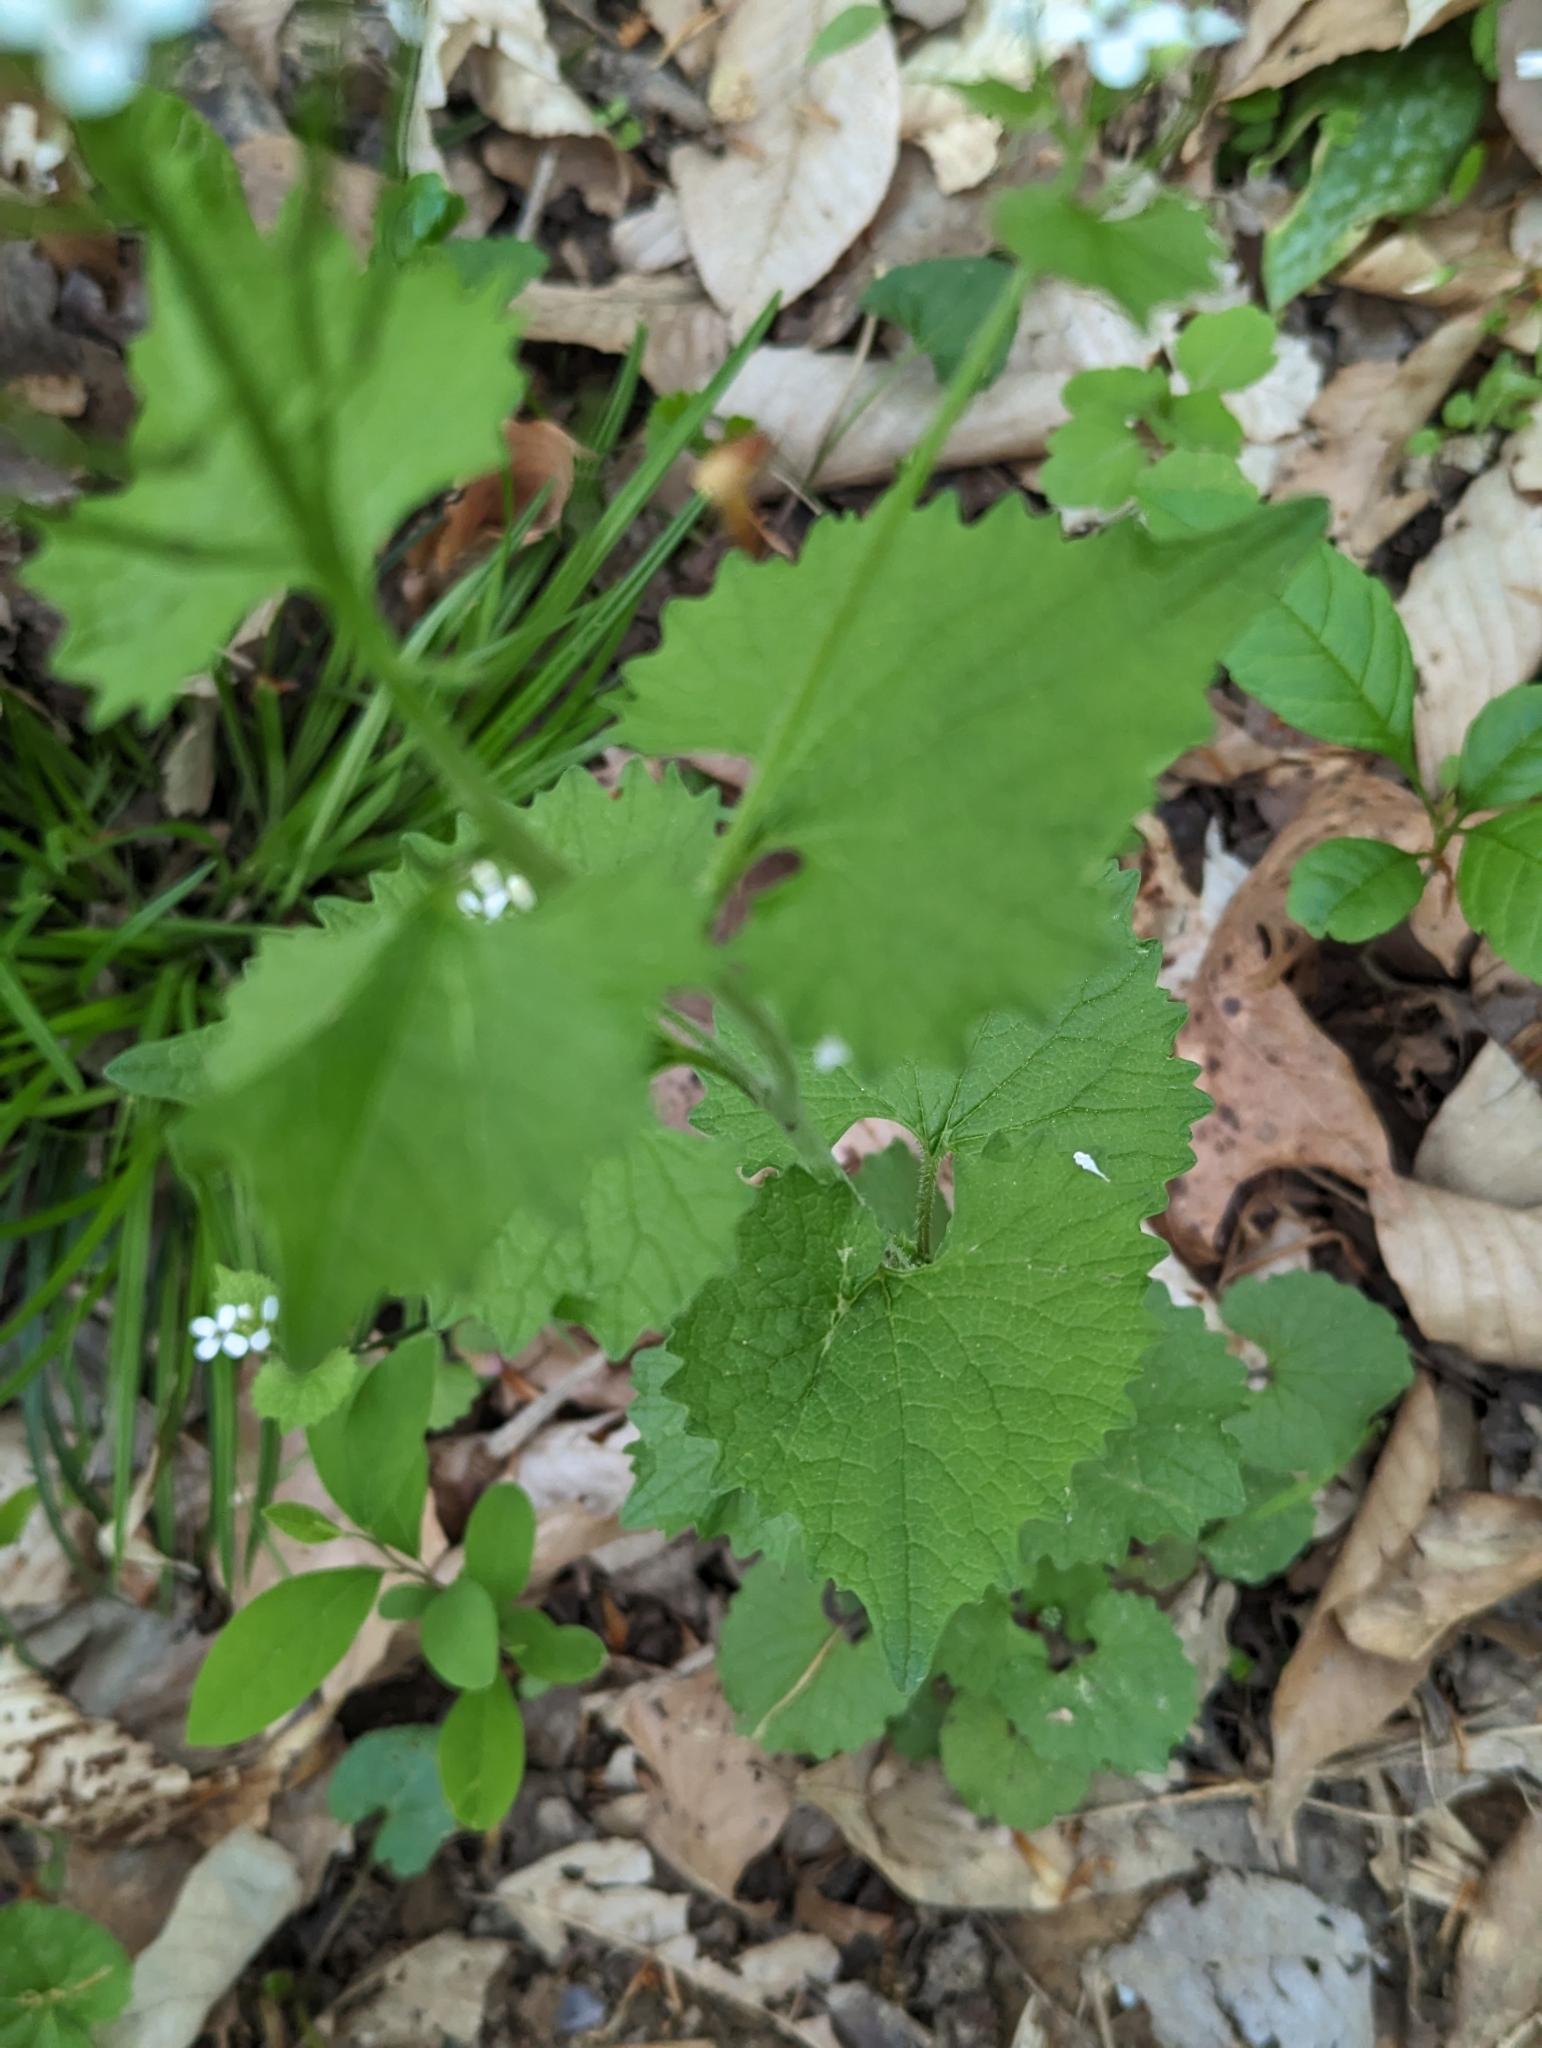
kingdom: Plantae
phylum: Tracheophyta
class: Magnoliopsida
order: Brassicales
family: Brassicaceae
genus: Alliaria
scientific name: Alliaria petiolata
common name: Garlic mustard
